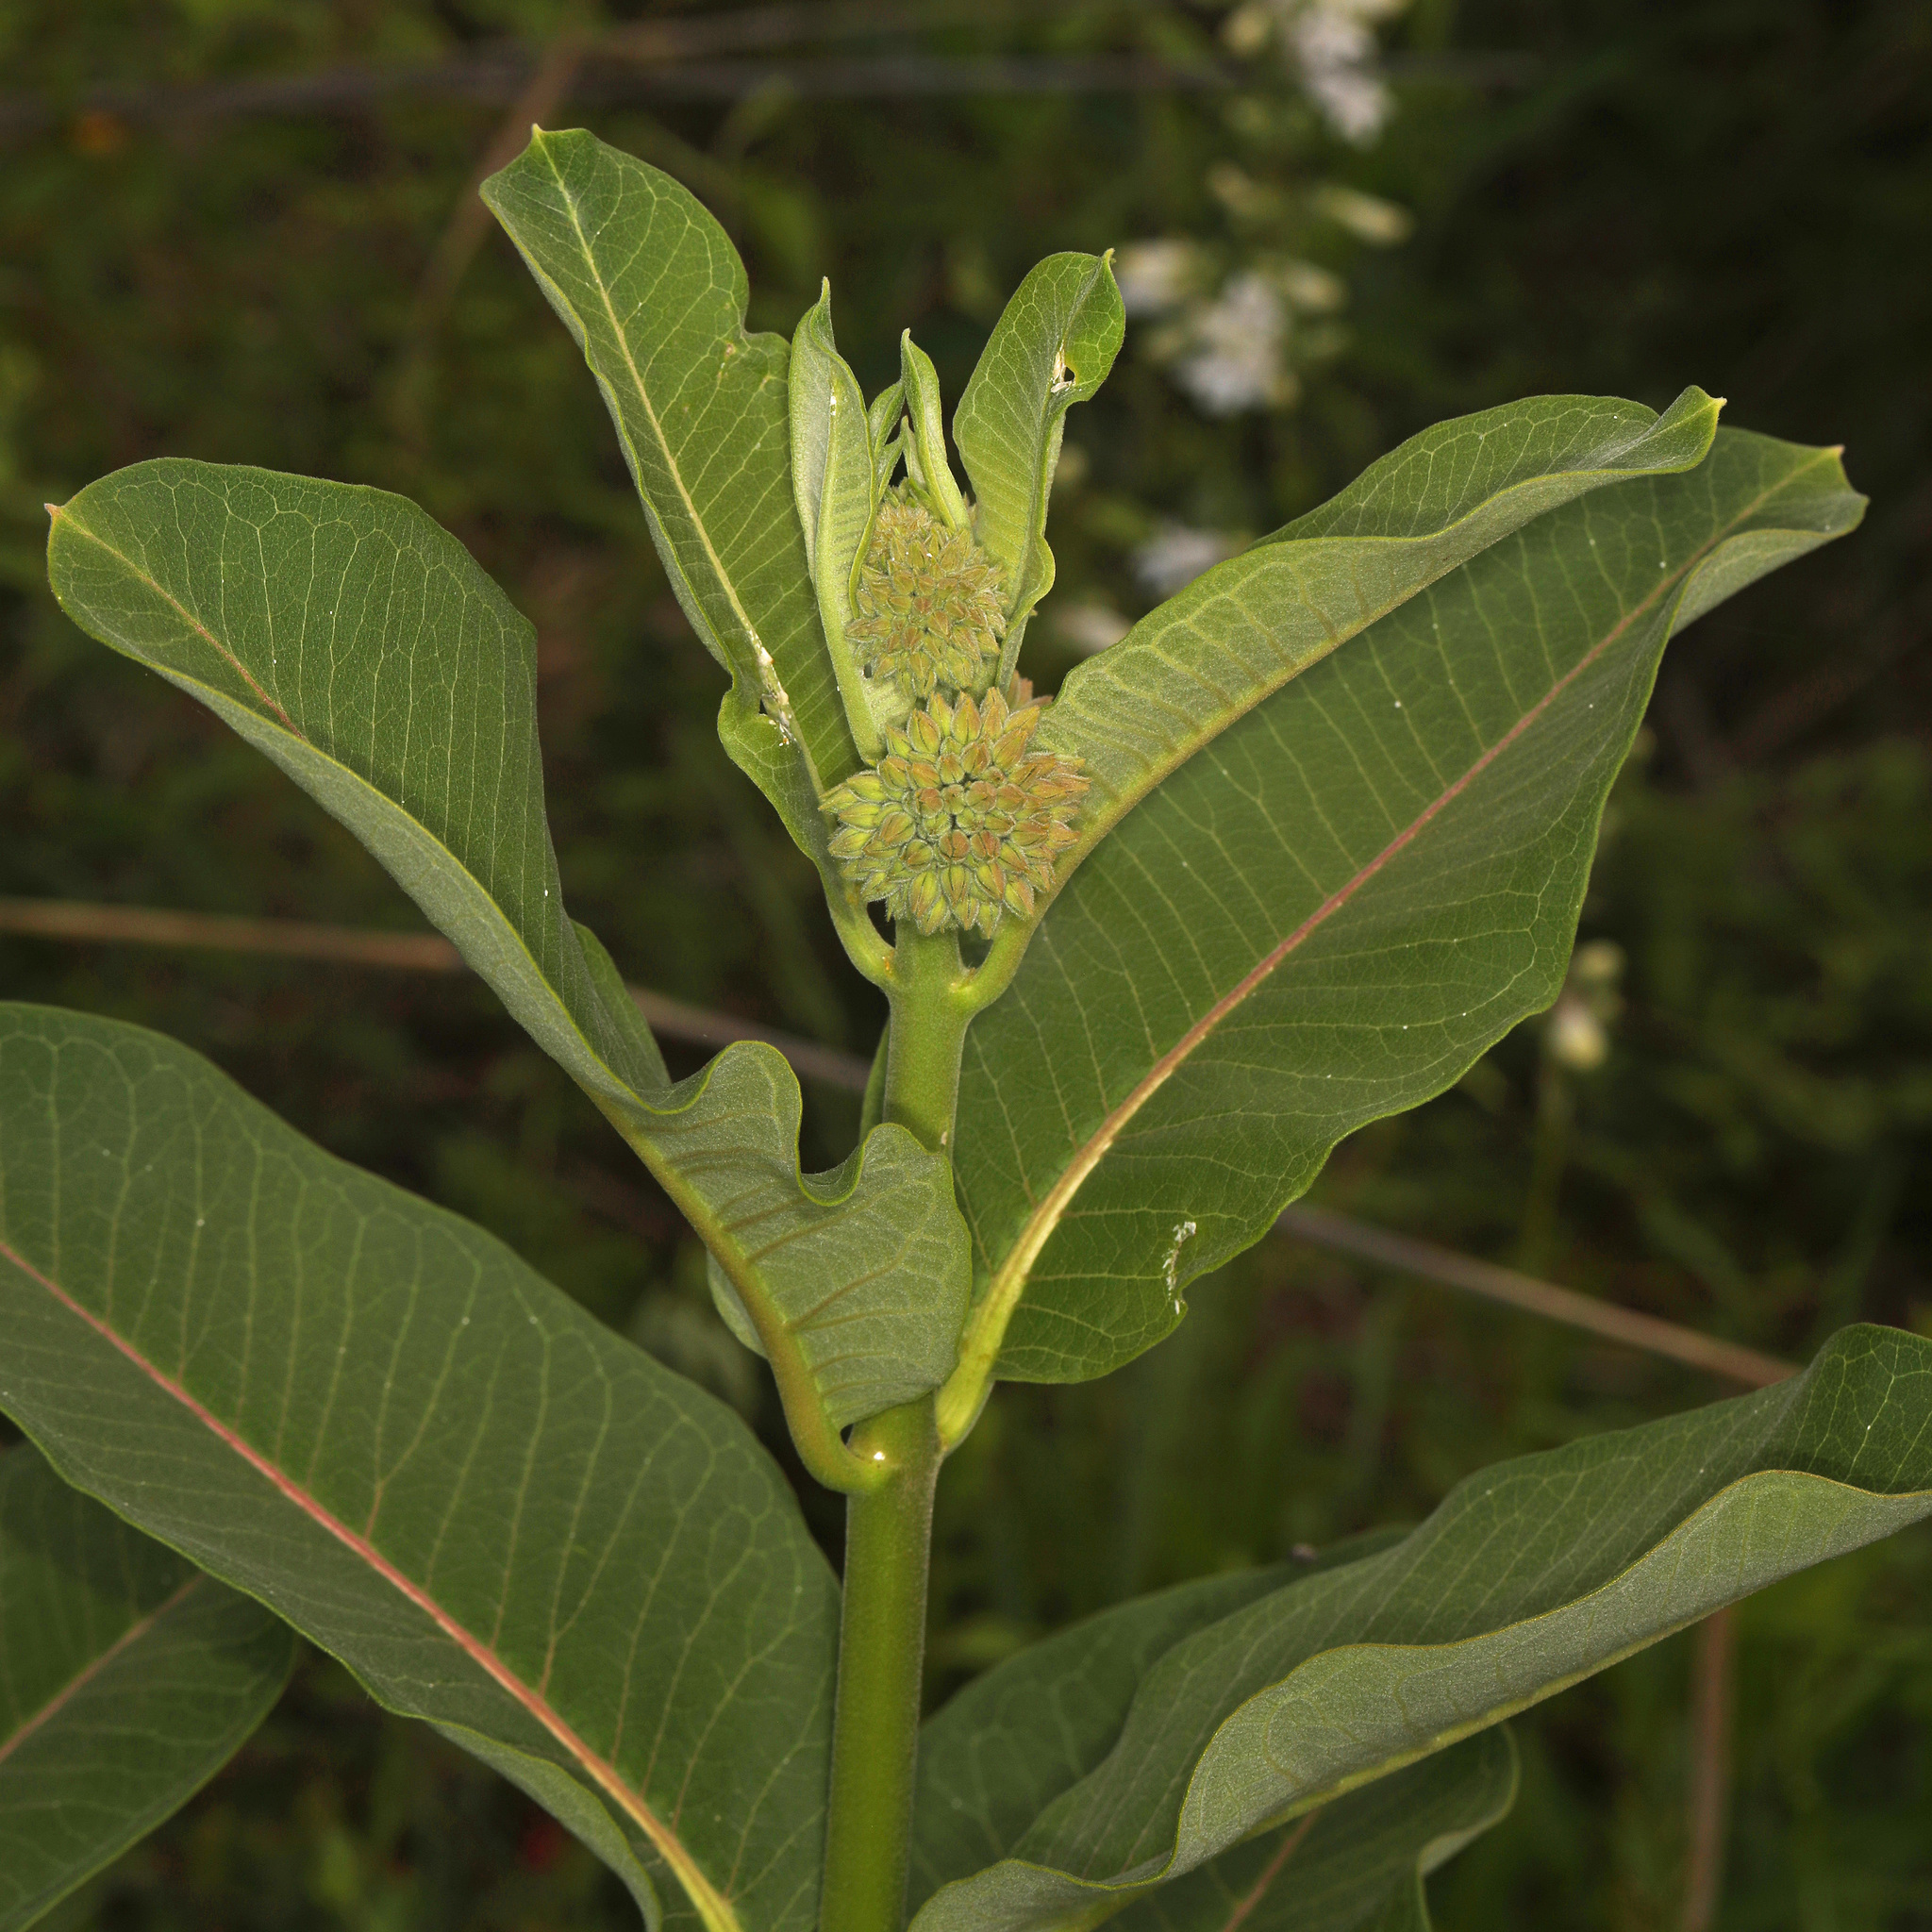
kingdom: Plantae
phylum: Tracheophyta
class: Magnoliopsida
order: Gentianales
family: Apocynaceae
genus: Asclepias
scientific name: Asclepias syriaca
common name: Common milkweed
